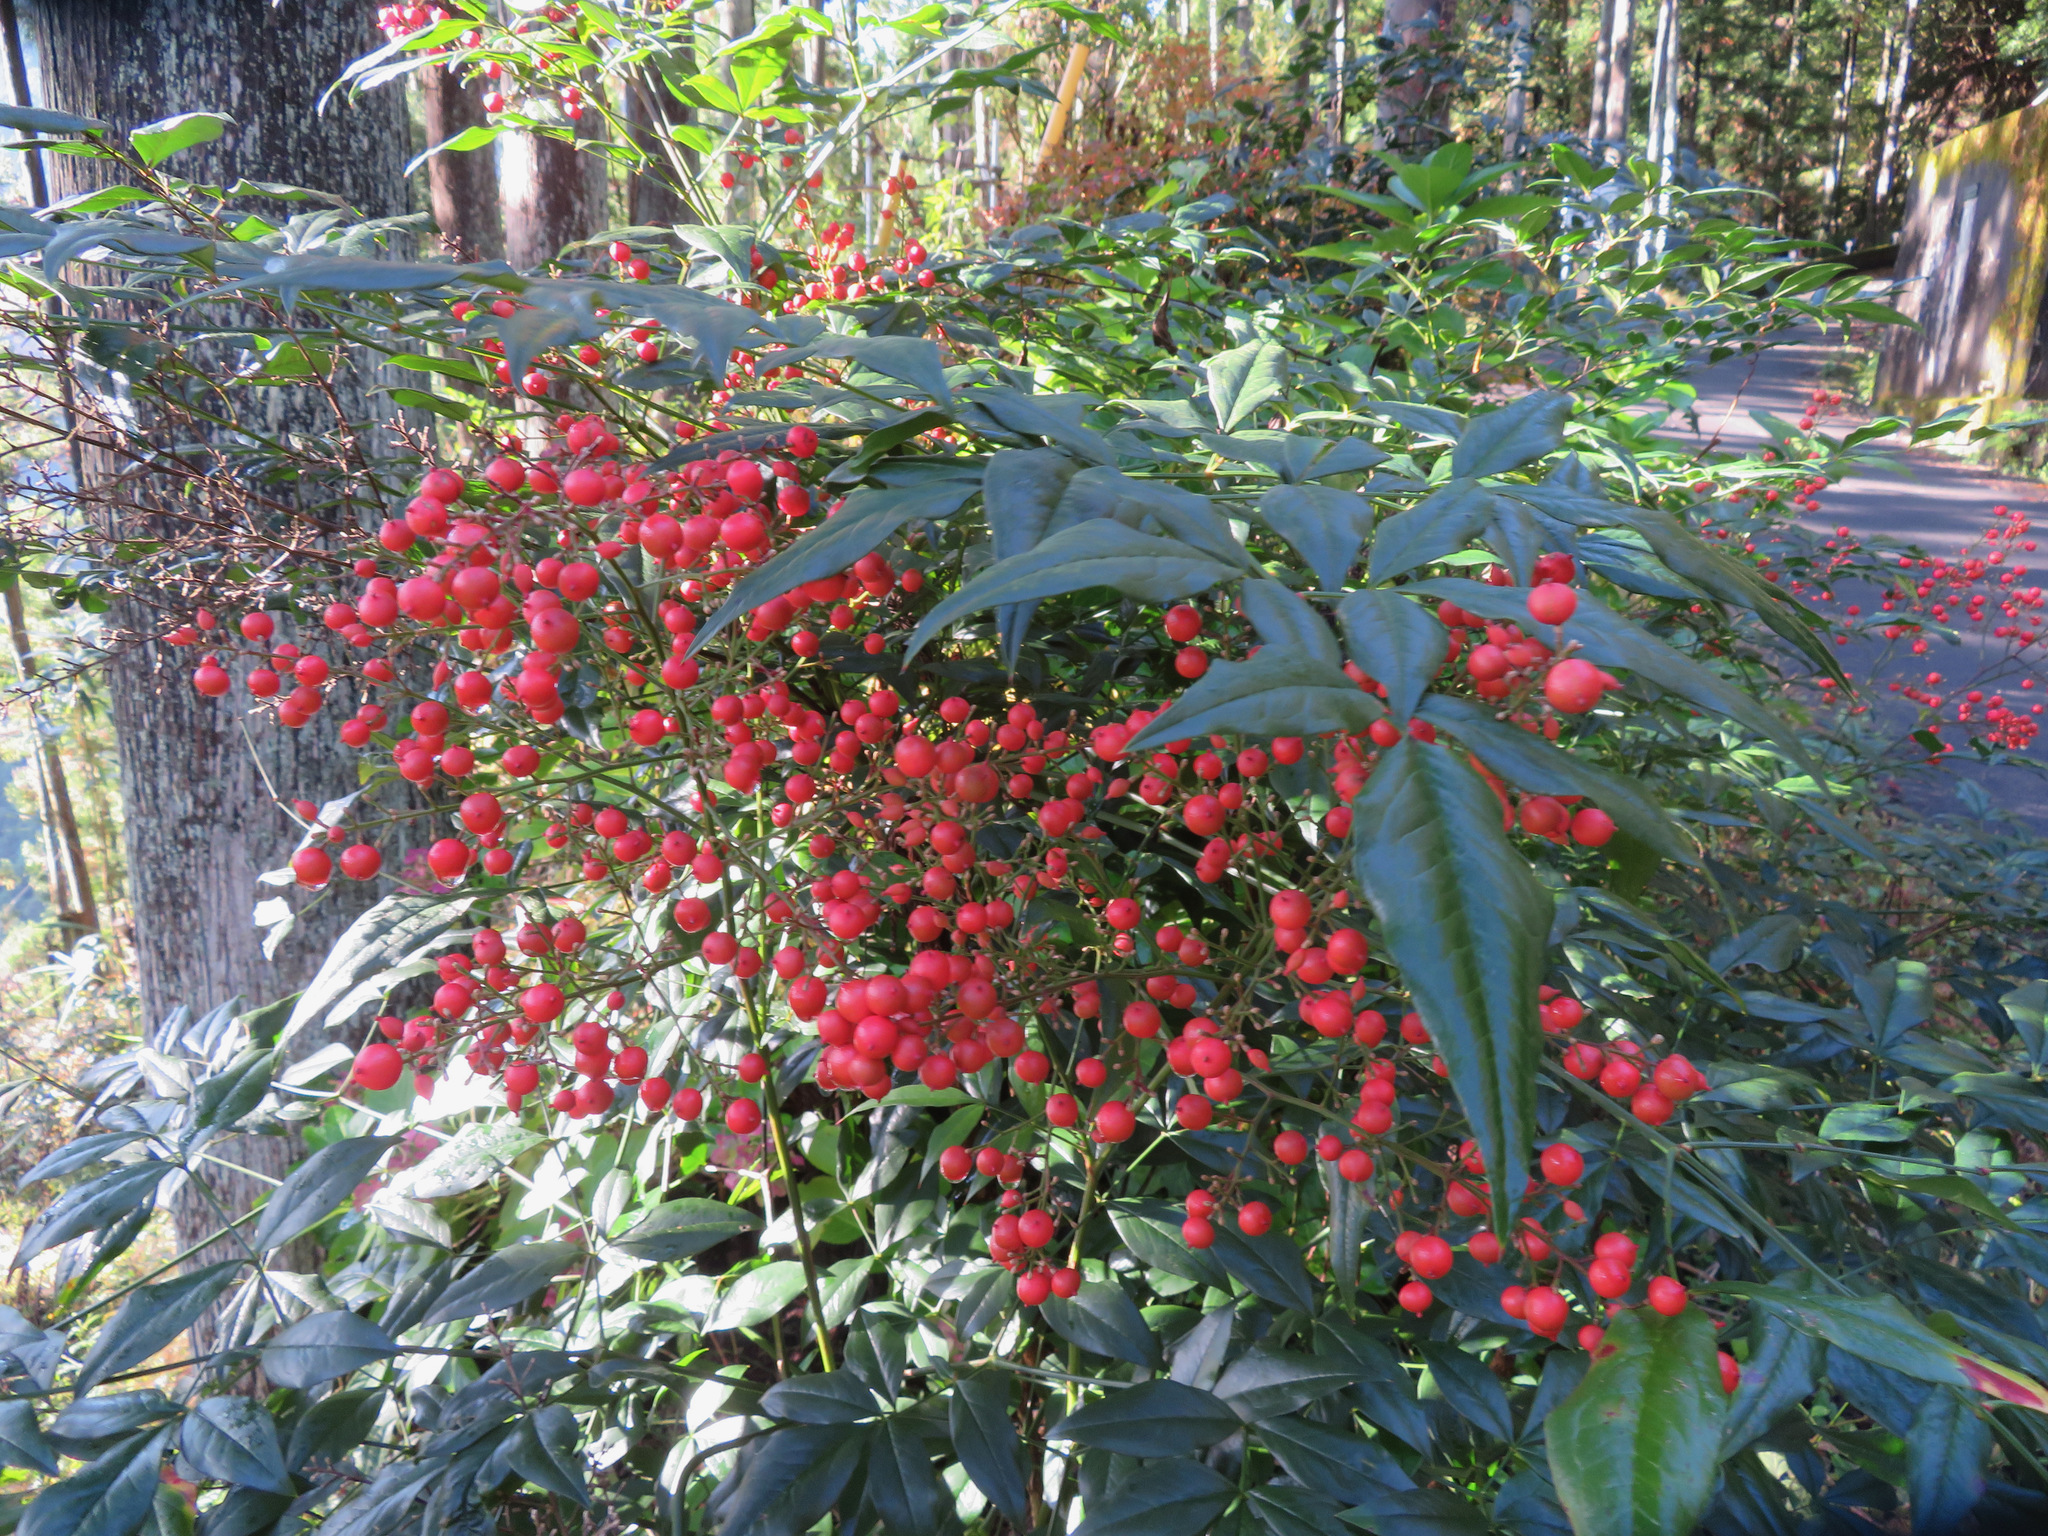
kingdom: Plantae
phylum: Tracheophyta
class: Magnoliopsida
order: Ranunculales
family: Berberidaceae
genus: Nandina
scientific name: Nandina domestica
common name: Sacred bamboo
